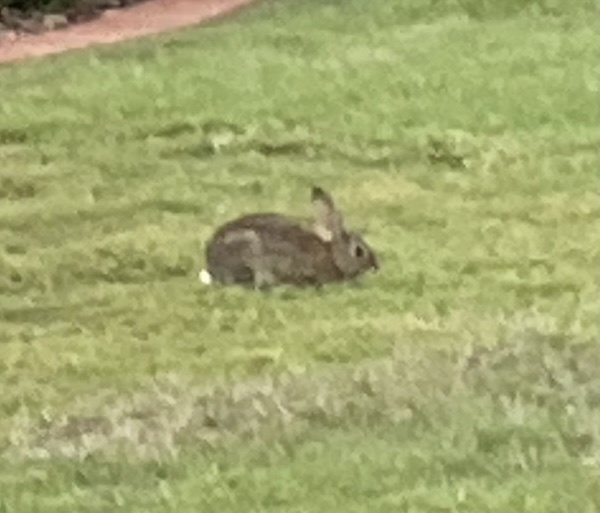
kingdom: Animalia
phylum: Chordata
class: Mammalia
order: Lagomorpha
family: Leporidae
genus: Sylvilagus
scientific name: Sylvilagus audubonii
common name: Desert cottontail
